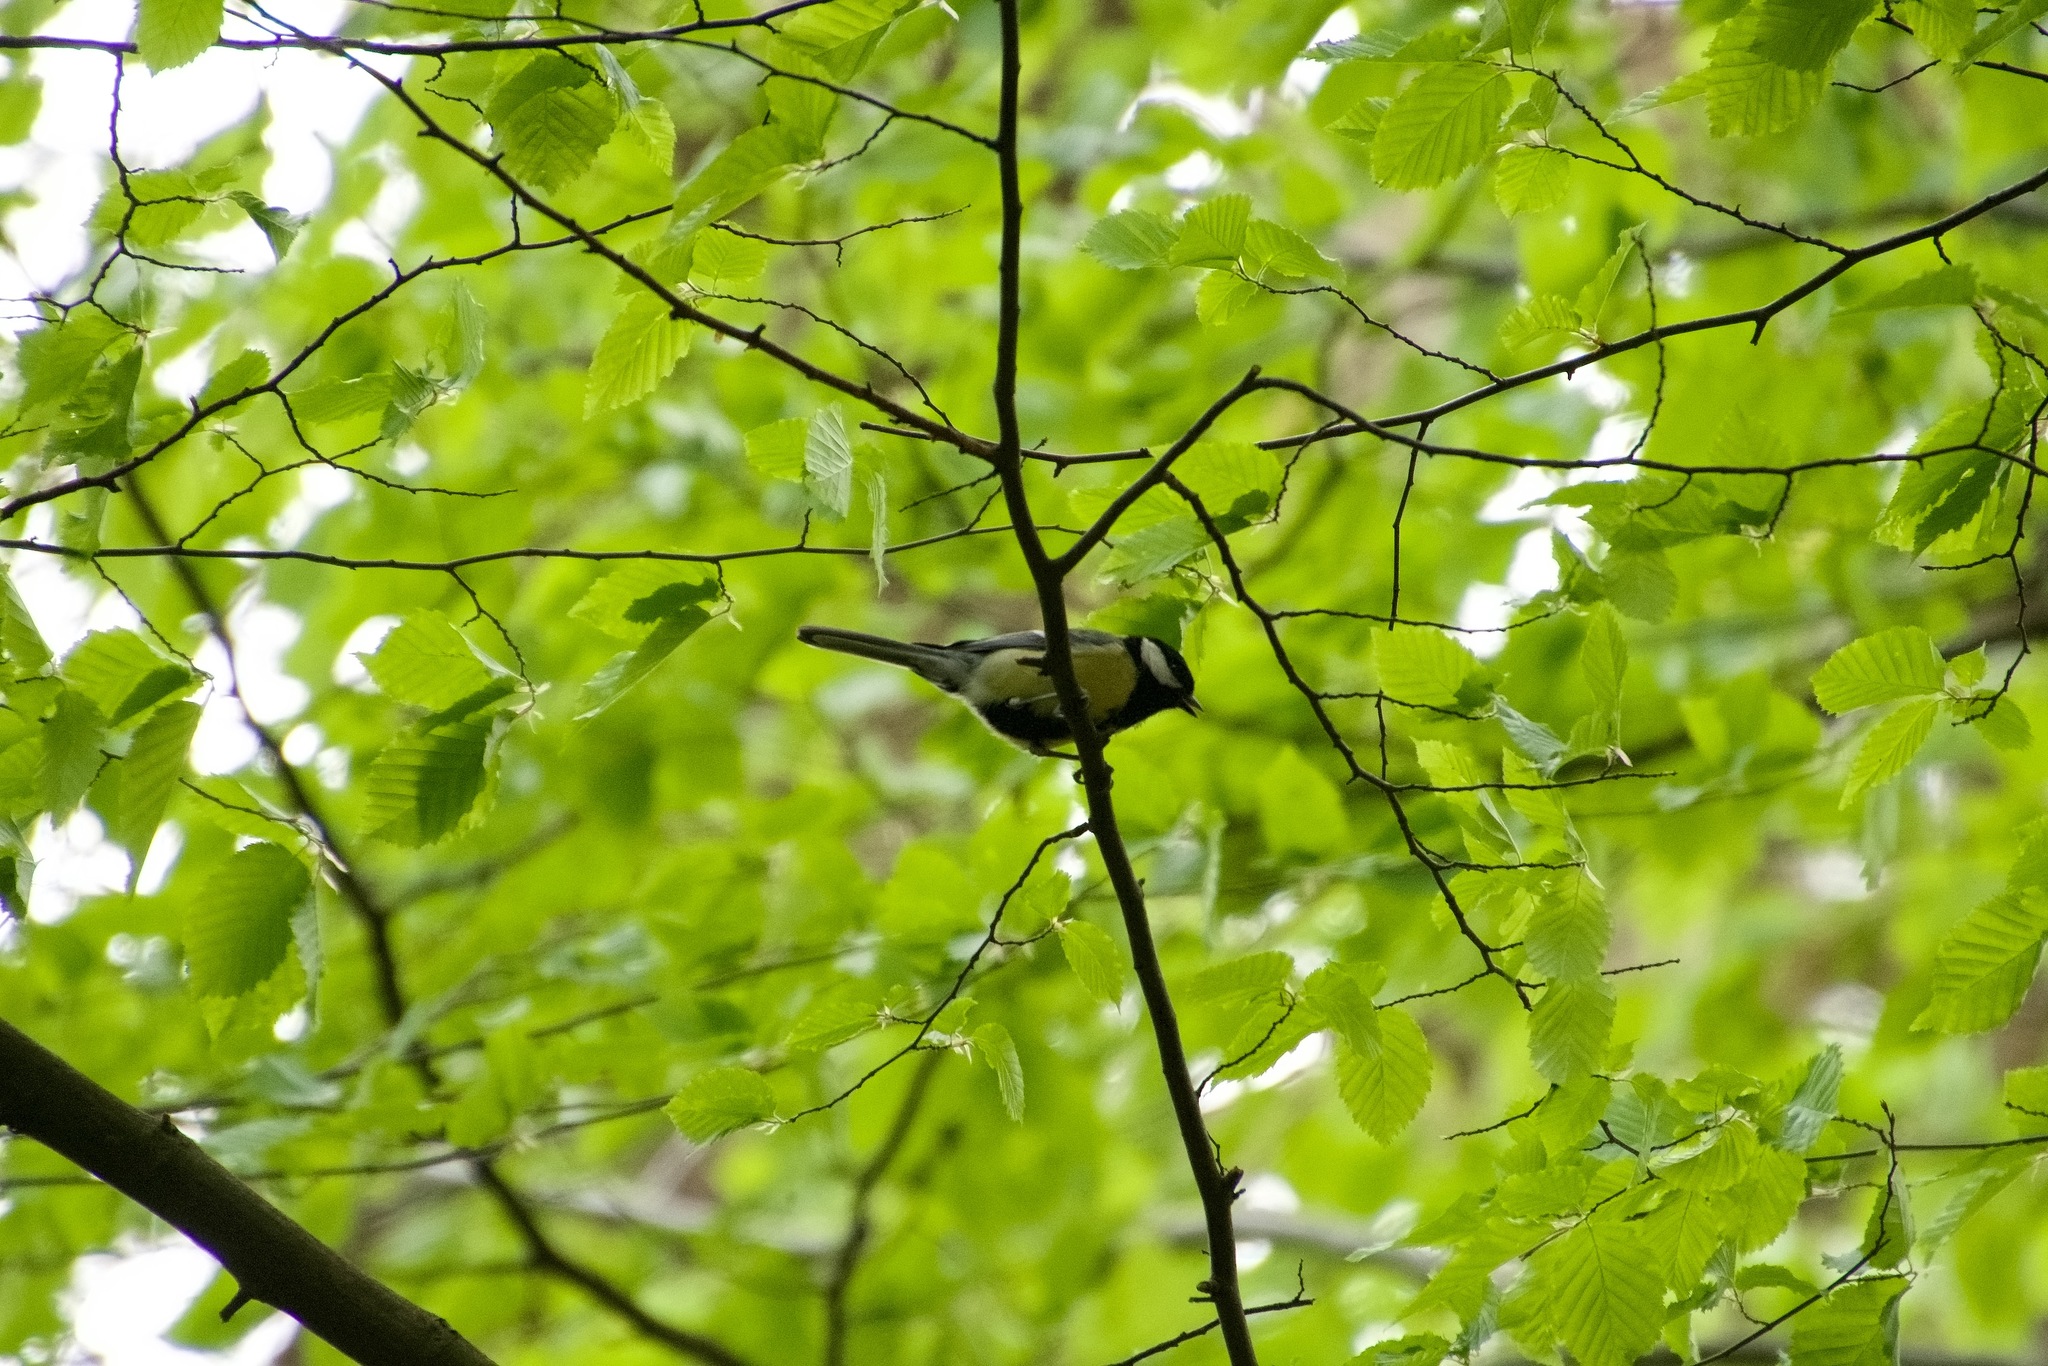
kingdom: Animalia
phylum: Chordata
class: Aves
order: Passeriformes
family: Paridae
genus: Parus
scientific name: Parus major
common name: Great tit
